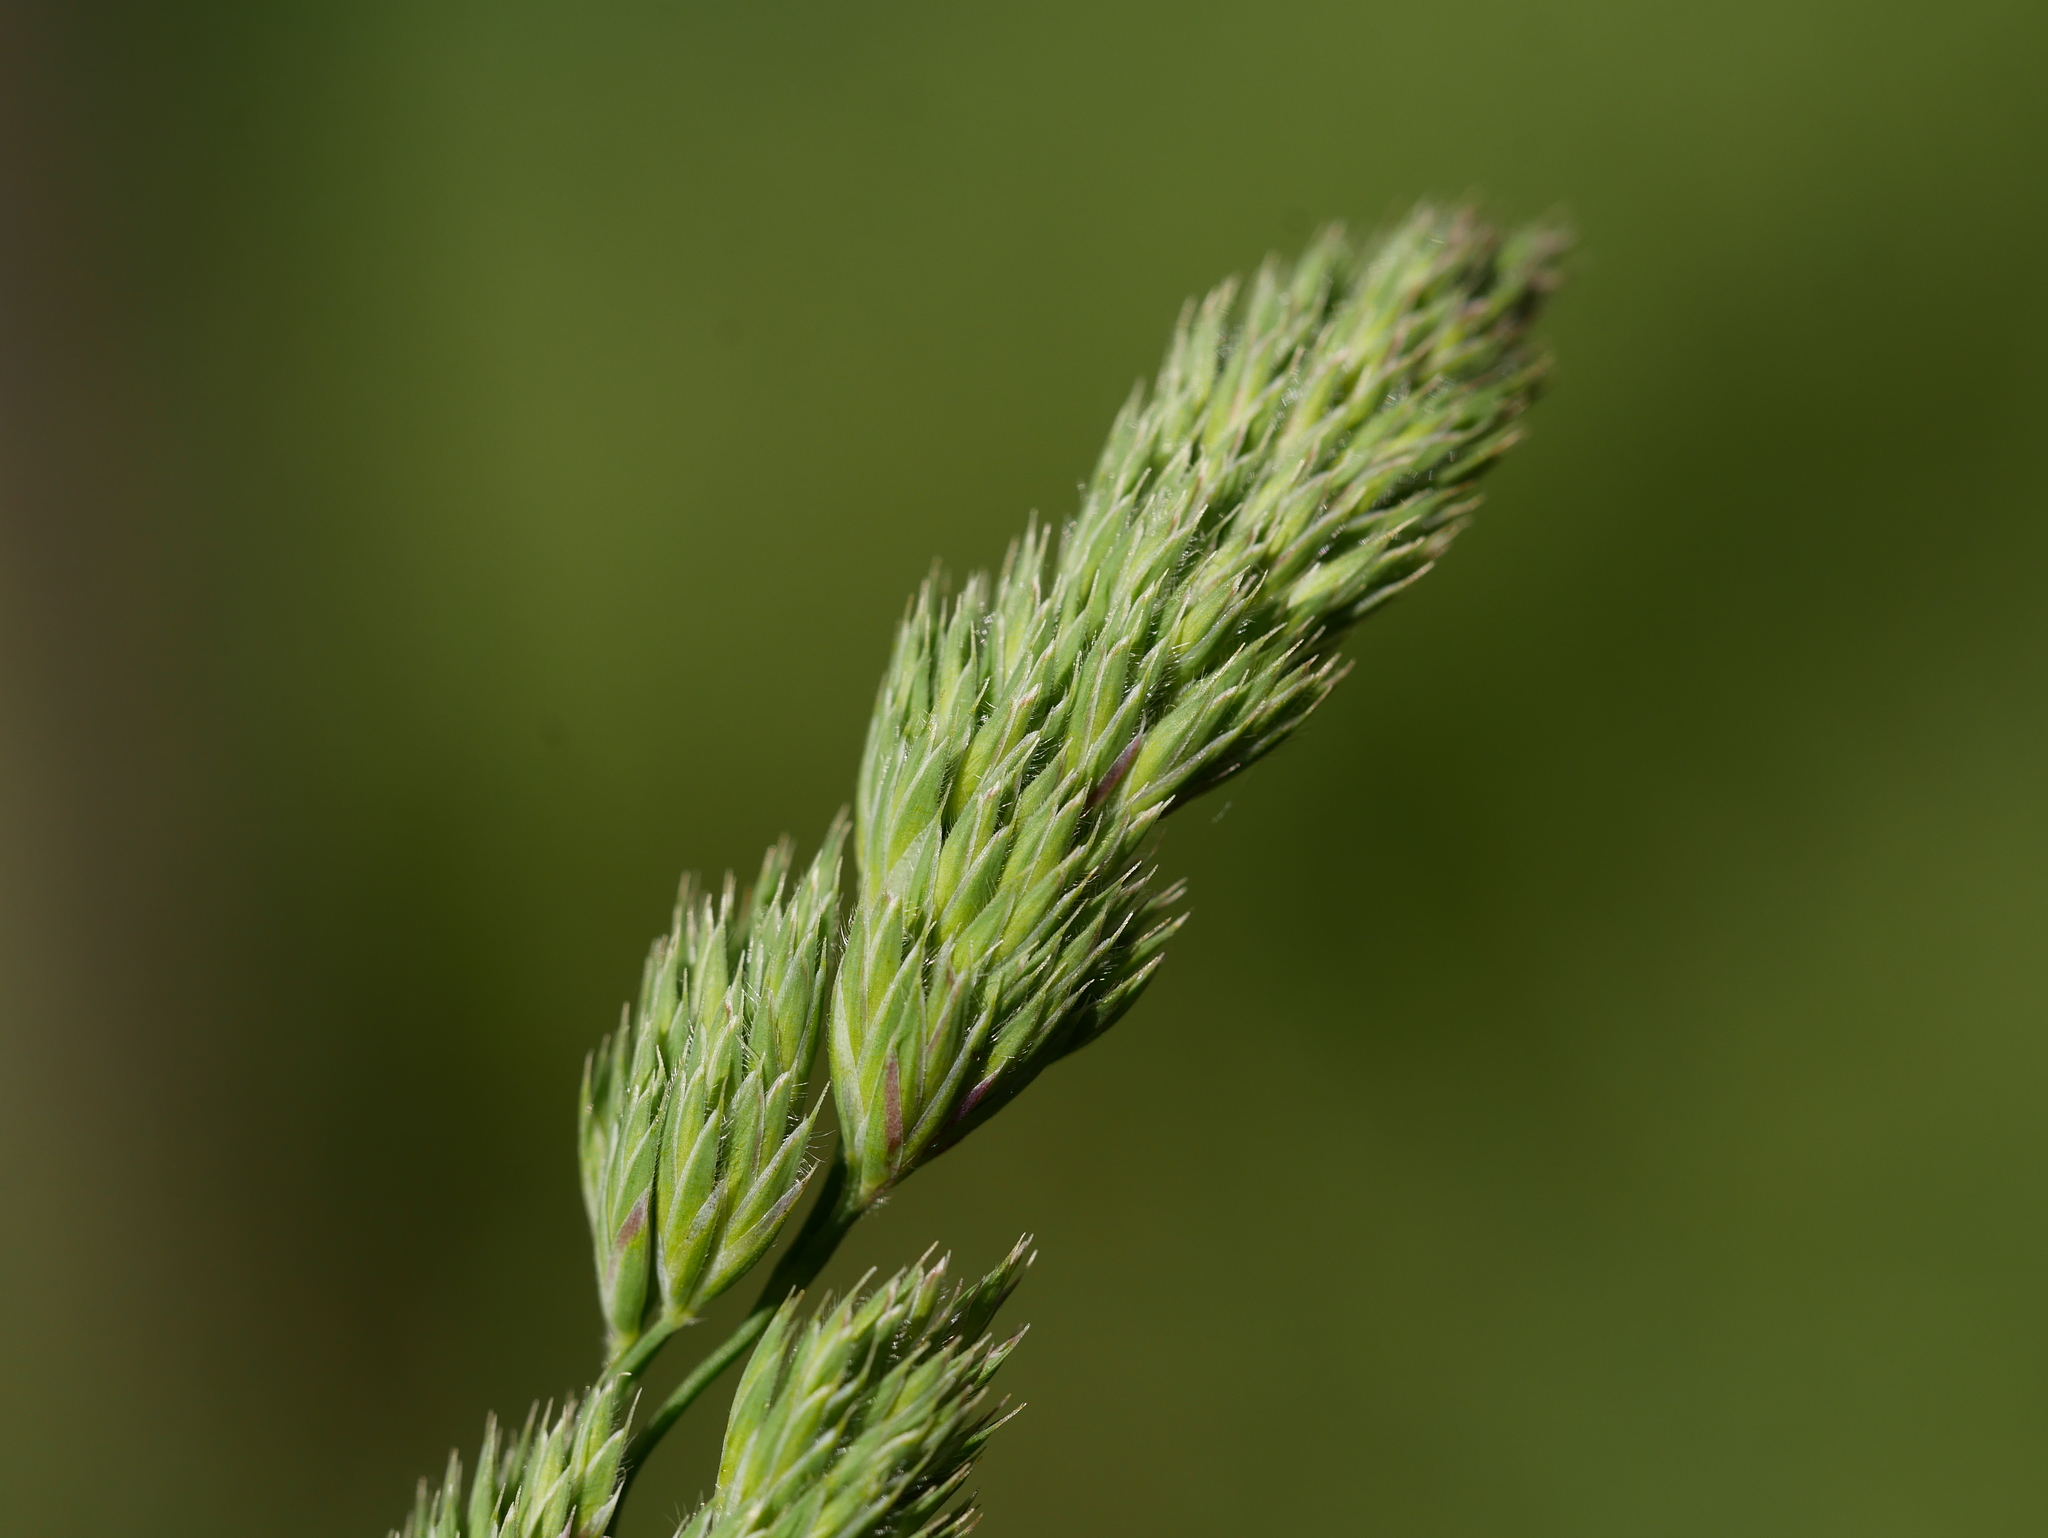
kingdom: Plantae
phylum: Tracheophyta
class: Liliopsida
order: Poales
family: Poaceae
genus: Dactylis
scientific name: Dactylis glomerata
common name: Orchardgrass
